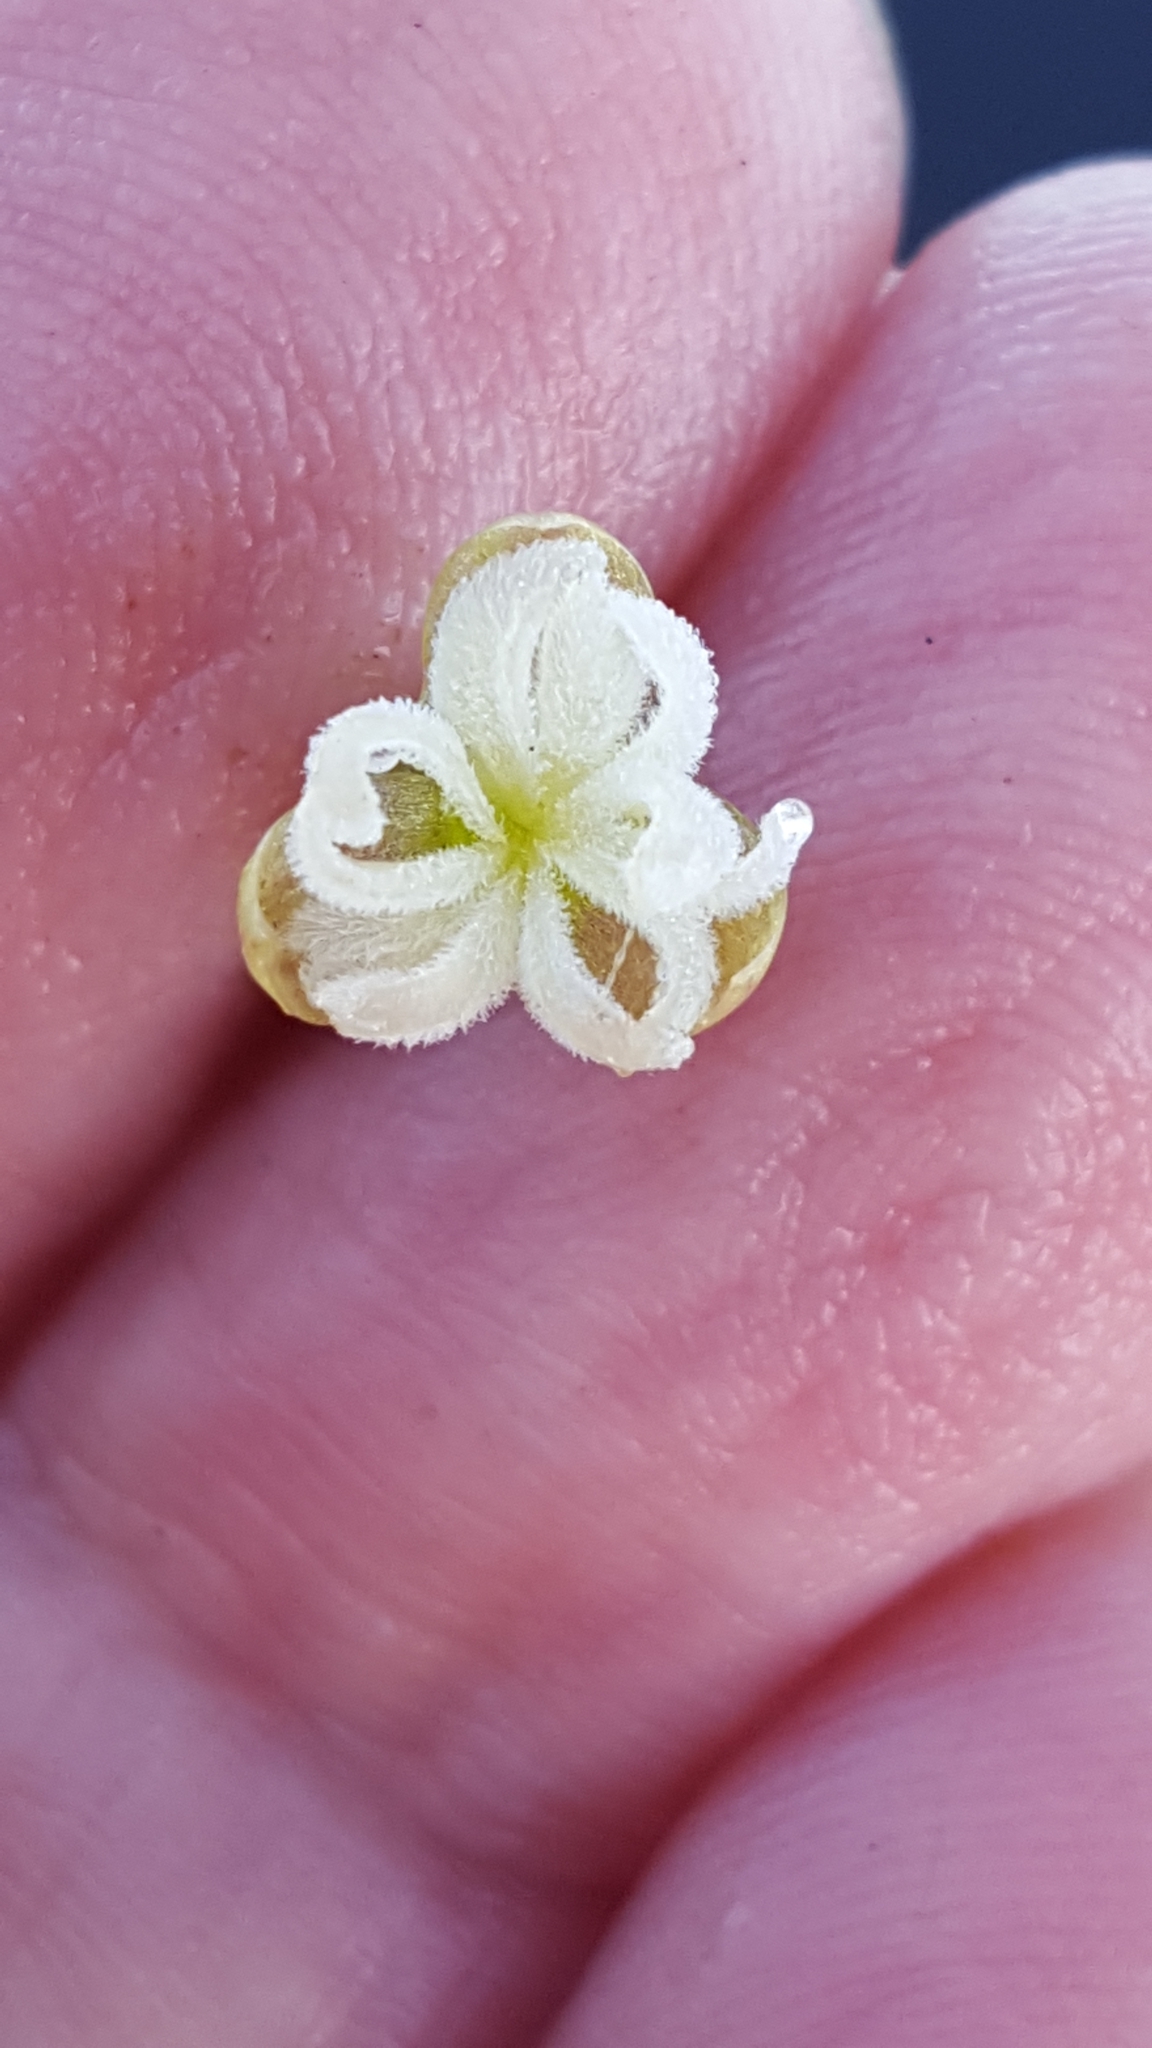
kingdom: Plantae
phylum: Tracheophyta
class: Liliopsida
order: Alismatales
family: Hydrocharitaceae
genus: Vallisneria
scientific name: Vallisneria americana
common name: American eelgrass
